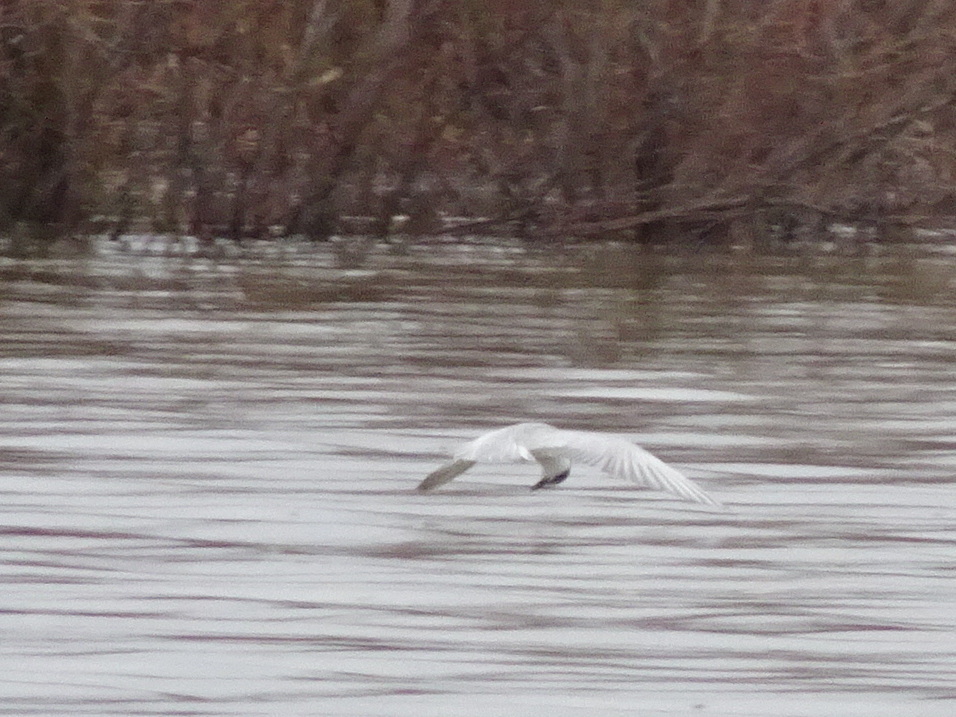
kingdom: Animalia
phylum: Chordata
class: Aves
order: Charadriiformes
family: Laridae
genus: Chlidonias
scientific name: Chlidonias hybrida
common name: Whiskered tern
